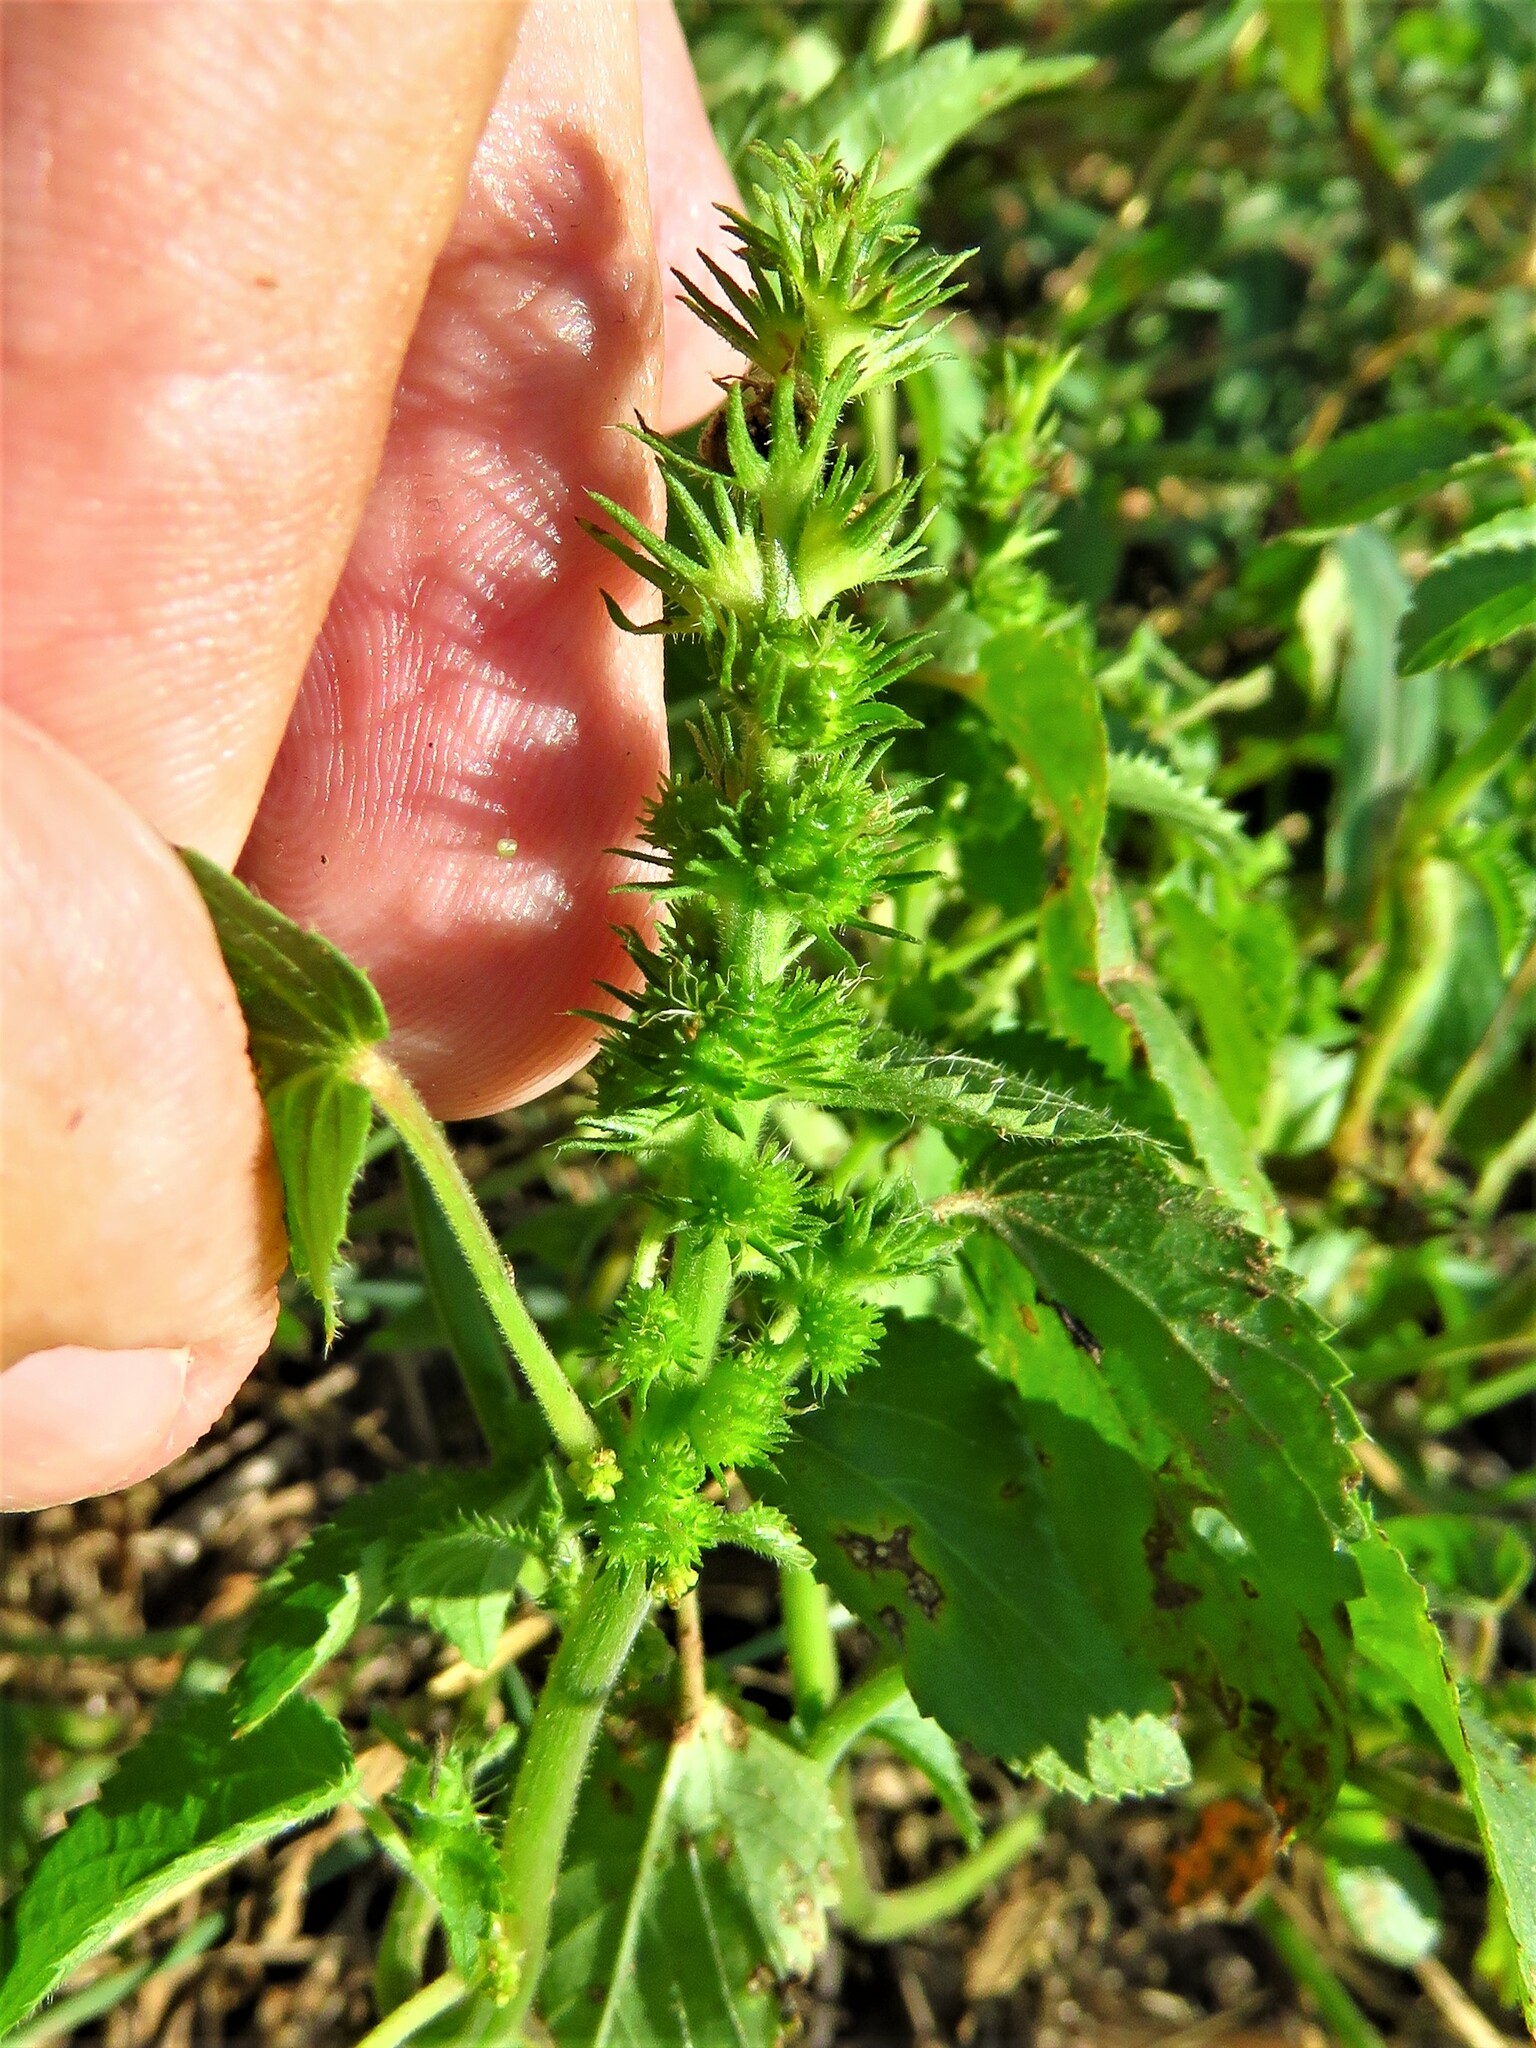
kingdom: Plantae
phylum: Tracheophyta
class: Magnoliopsida
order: Malpighiales
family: Euphorbiaceae
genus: Acalypha
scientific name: Acalypha ostryifolia
